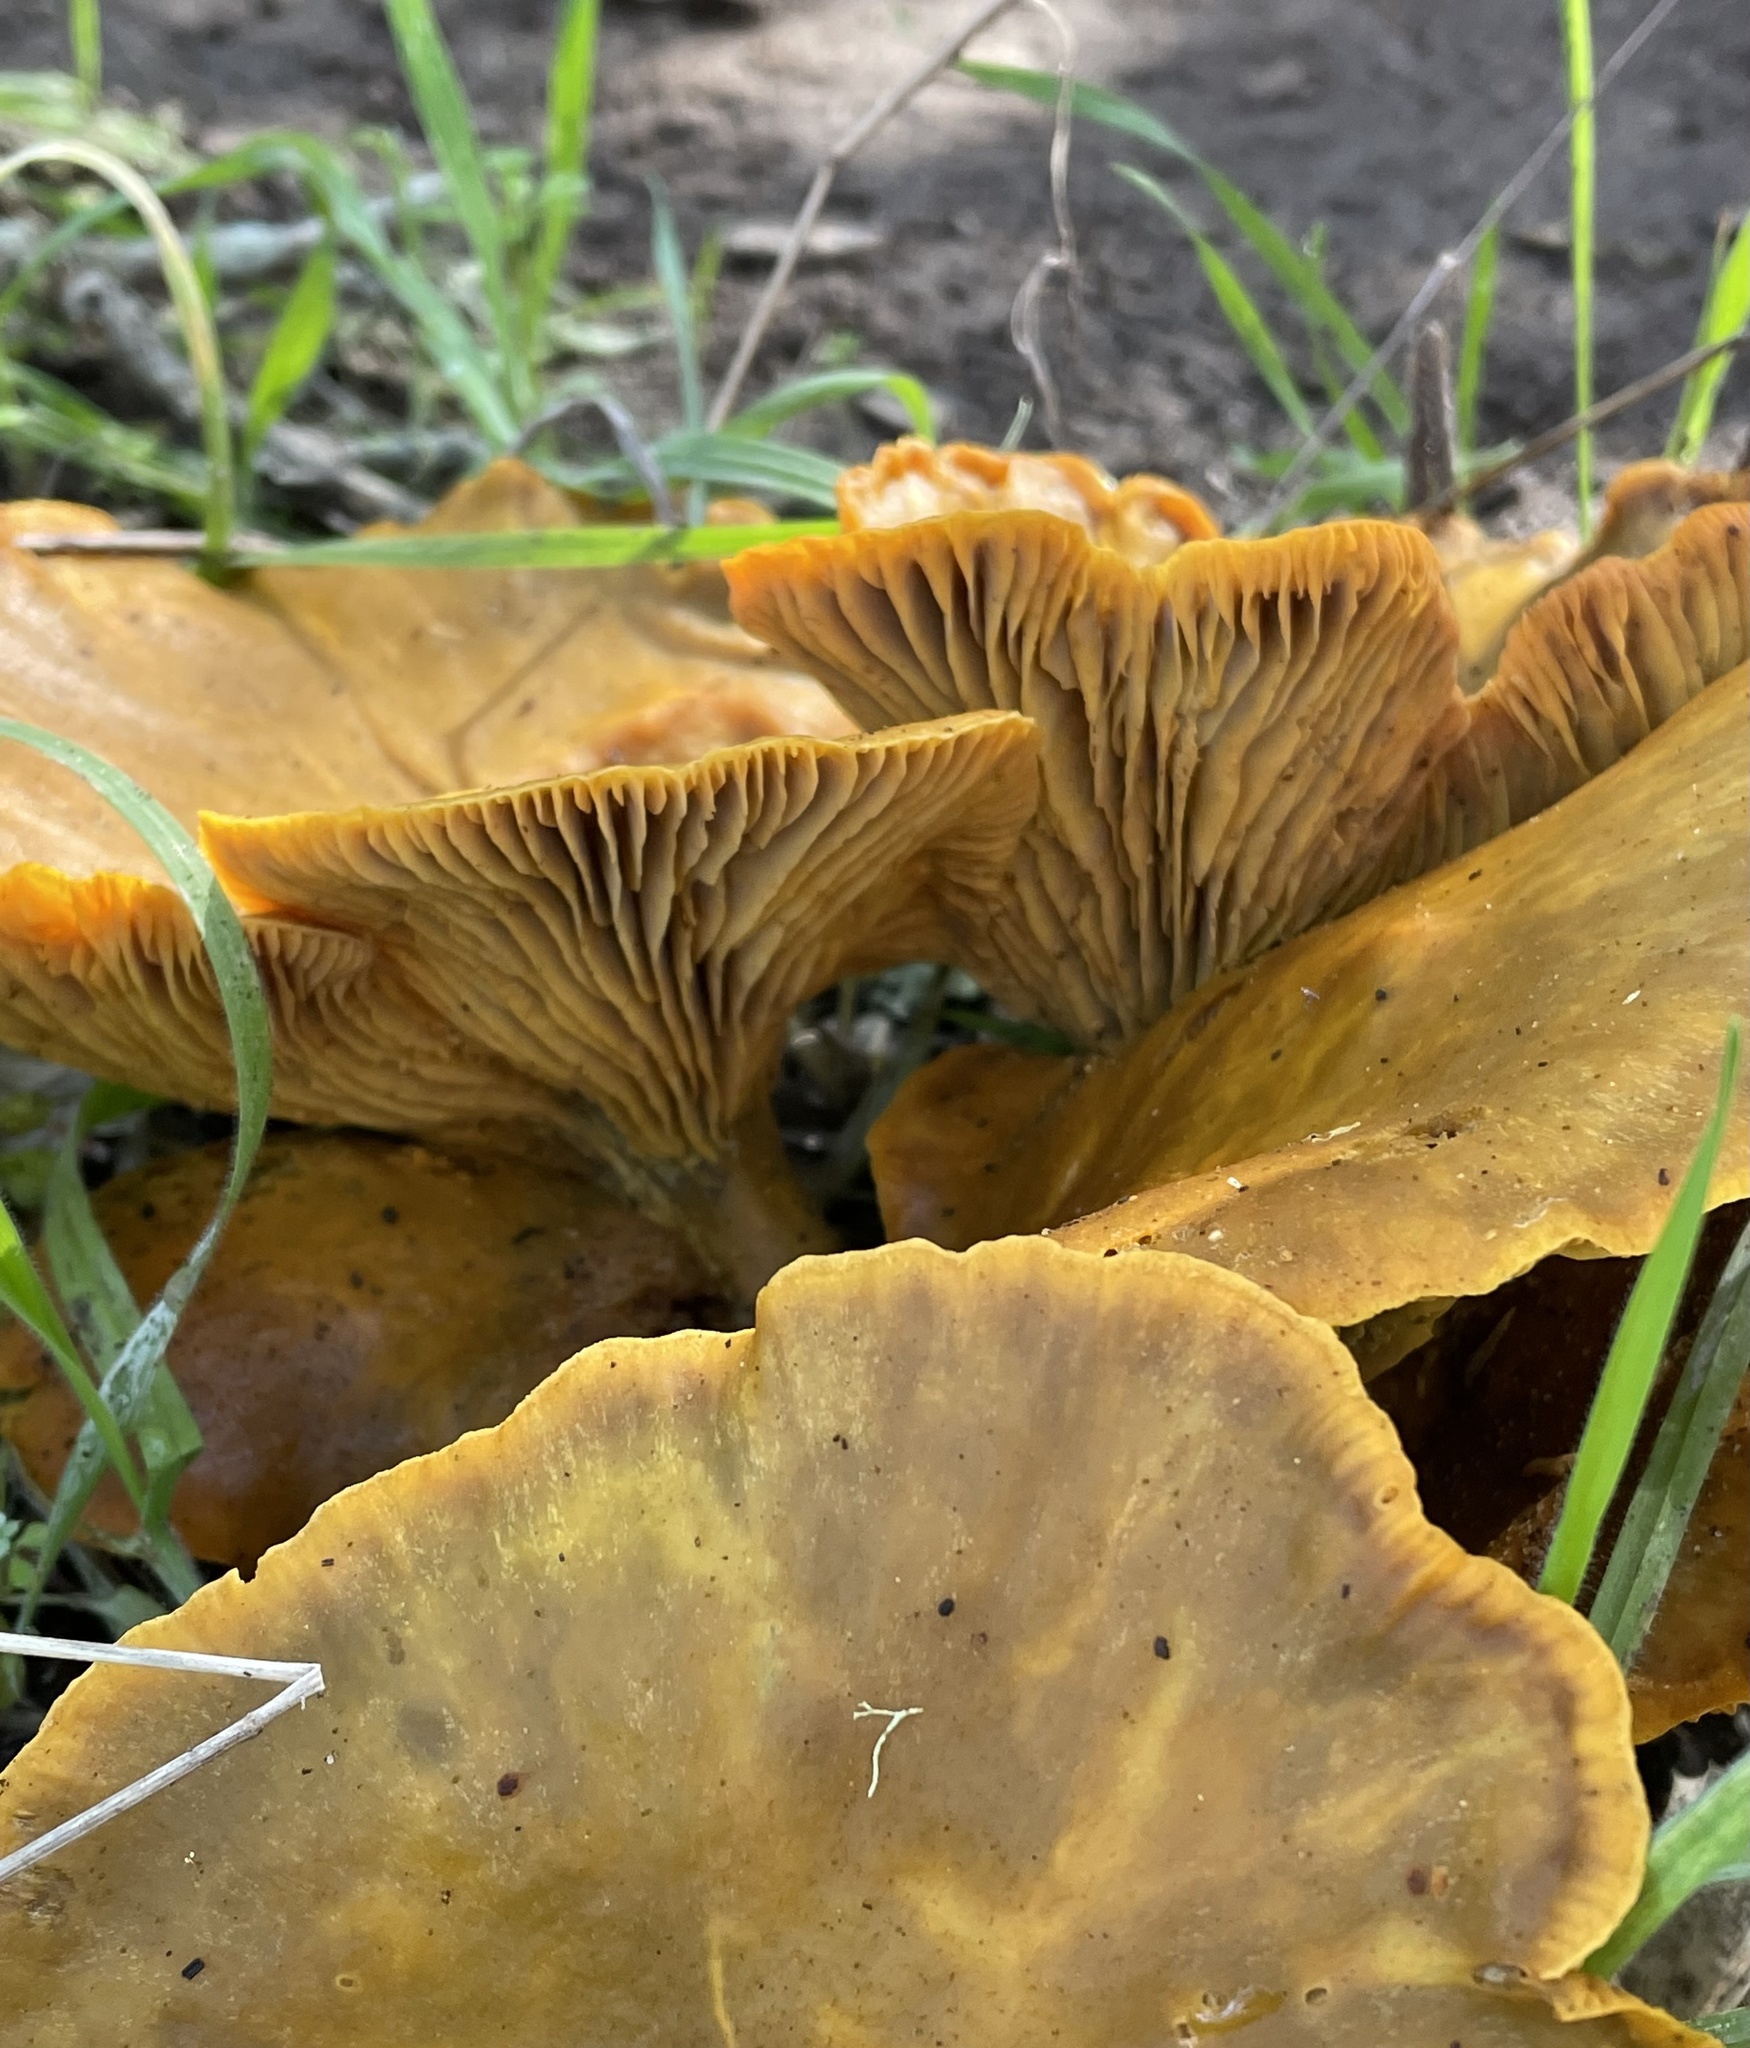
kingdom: Fungi
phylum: Basidiomycota
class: Agaricomycetes
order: Agaricales
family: Omphalotaceae
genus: Omphalotus
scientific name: Omphalotus olivascens
